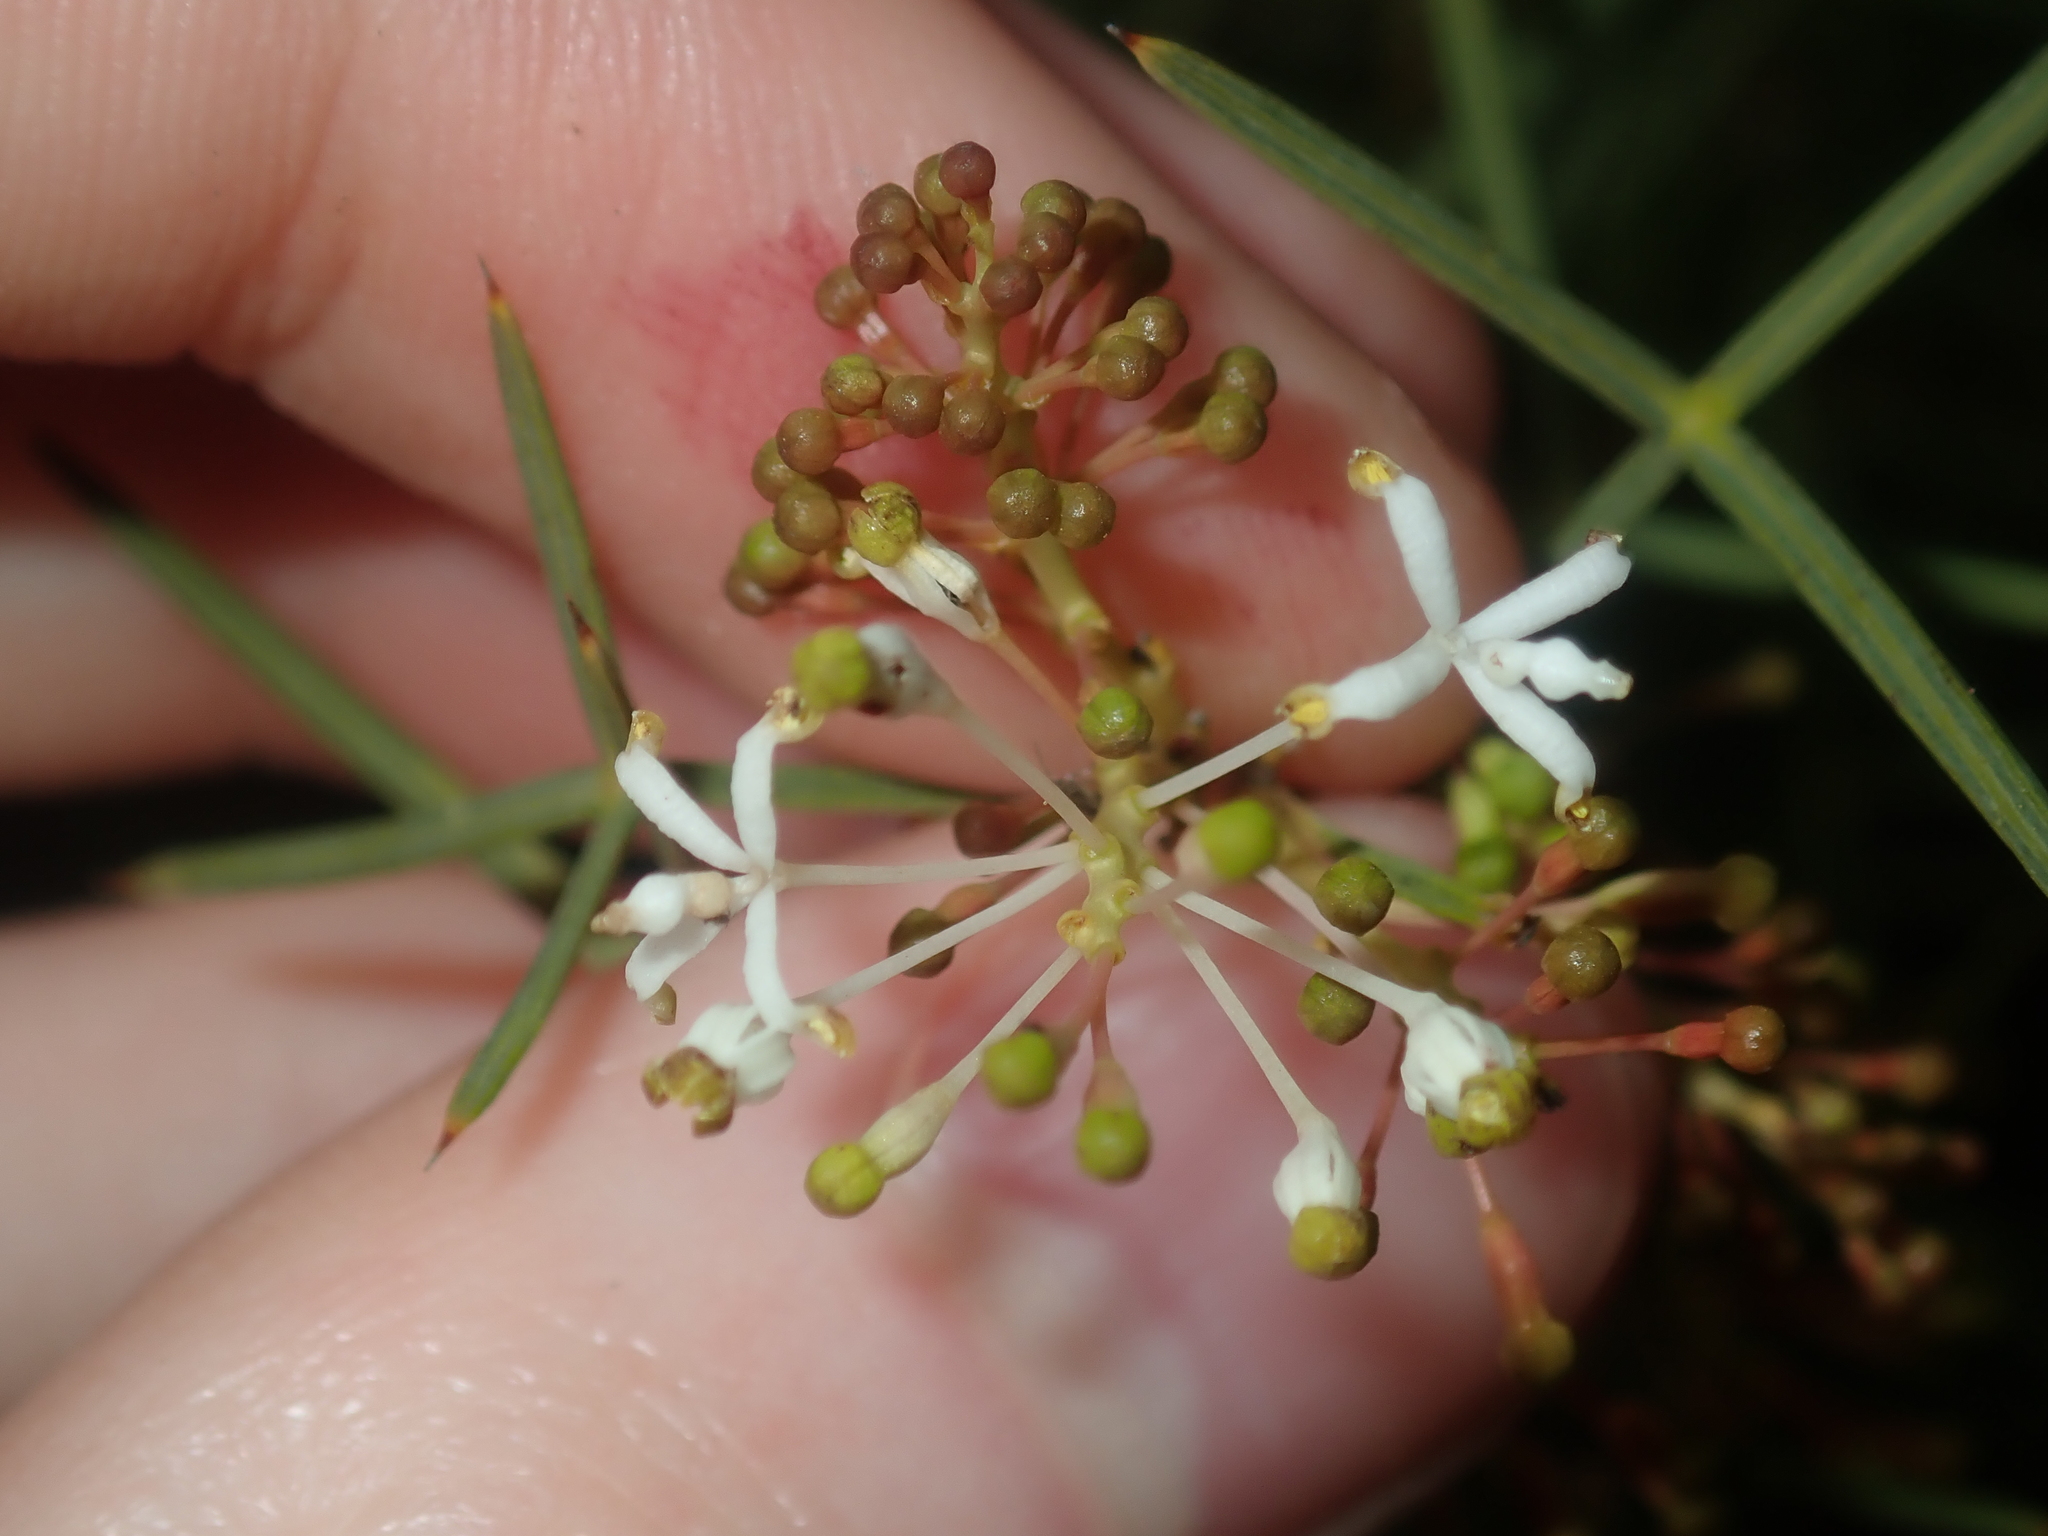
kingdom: Plantae
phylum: Tracheophyta
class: Magnoliopsida
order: Proteales
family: Proteaceae
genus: Grevillea
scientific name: Grevillea levis
